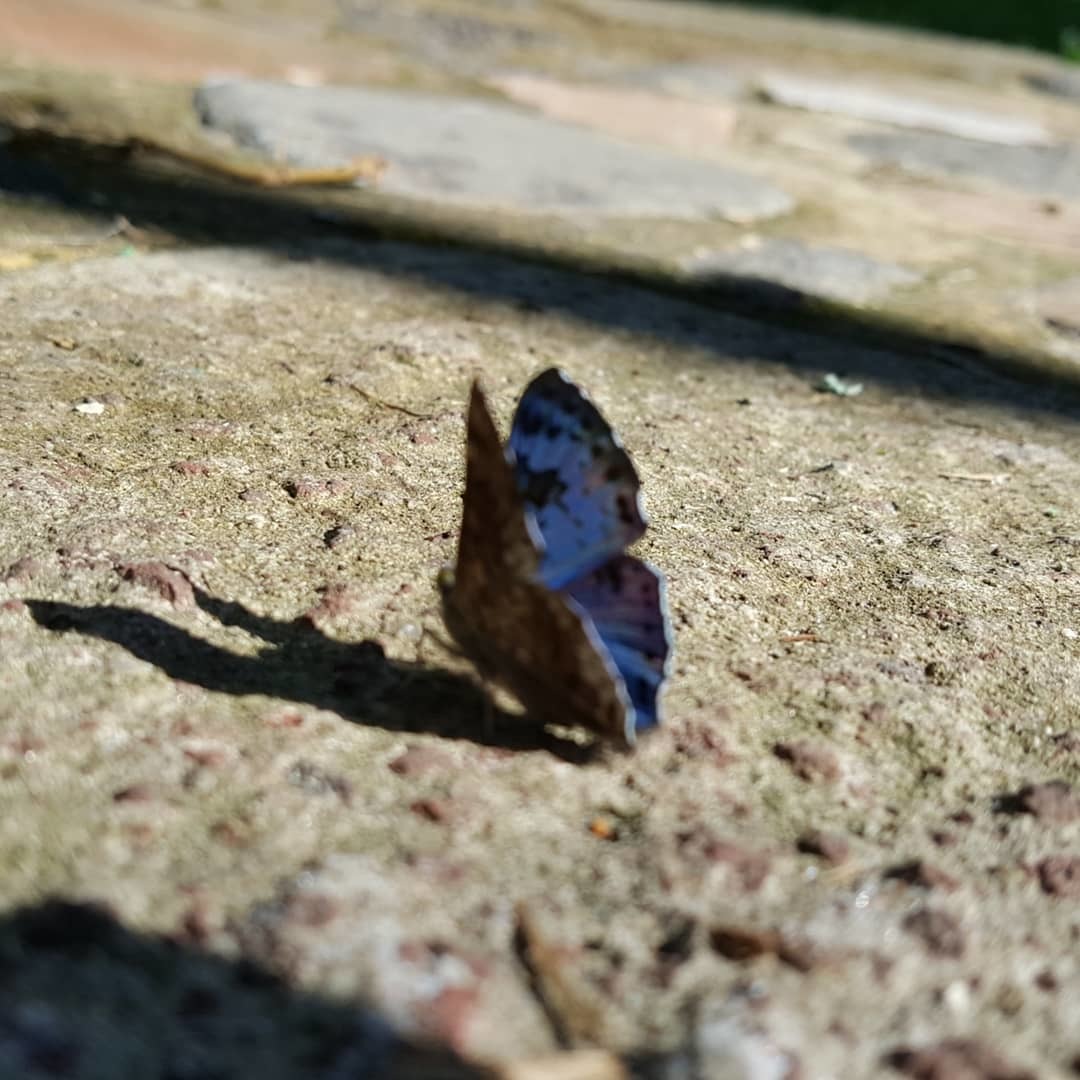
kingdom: Animalia
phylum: Arthropoda
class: Insecta
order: Lepidoptera
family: Riodinidae
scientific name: Riodinidae
